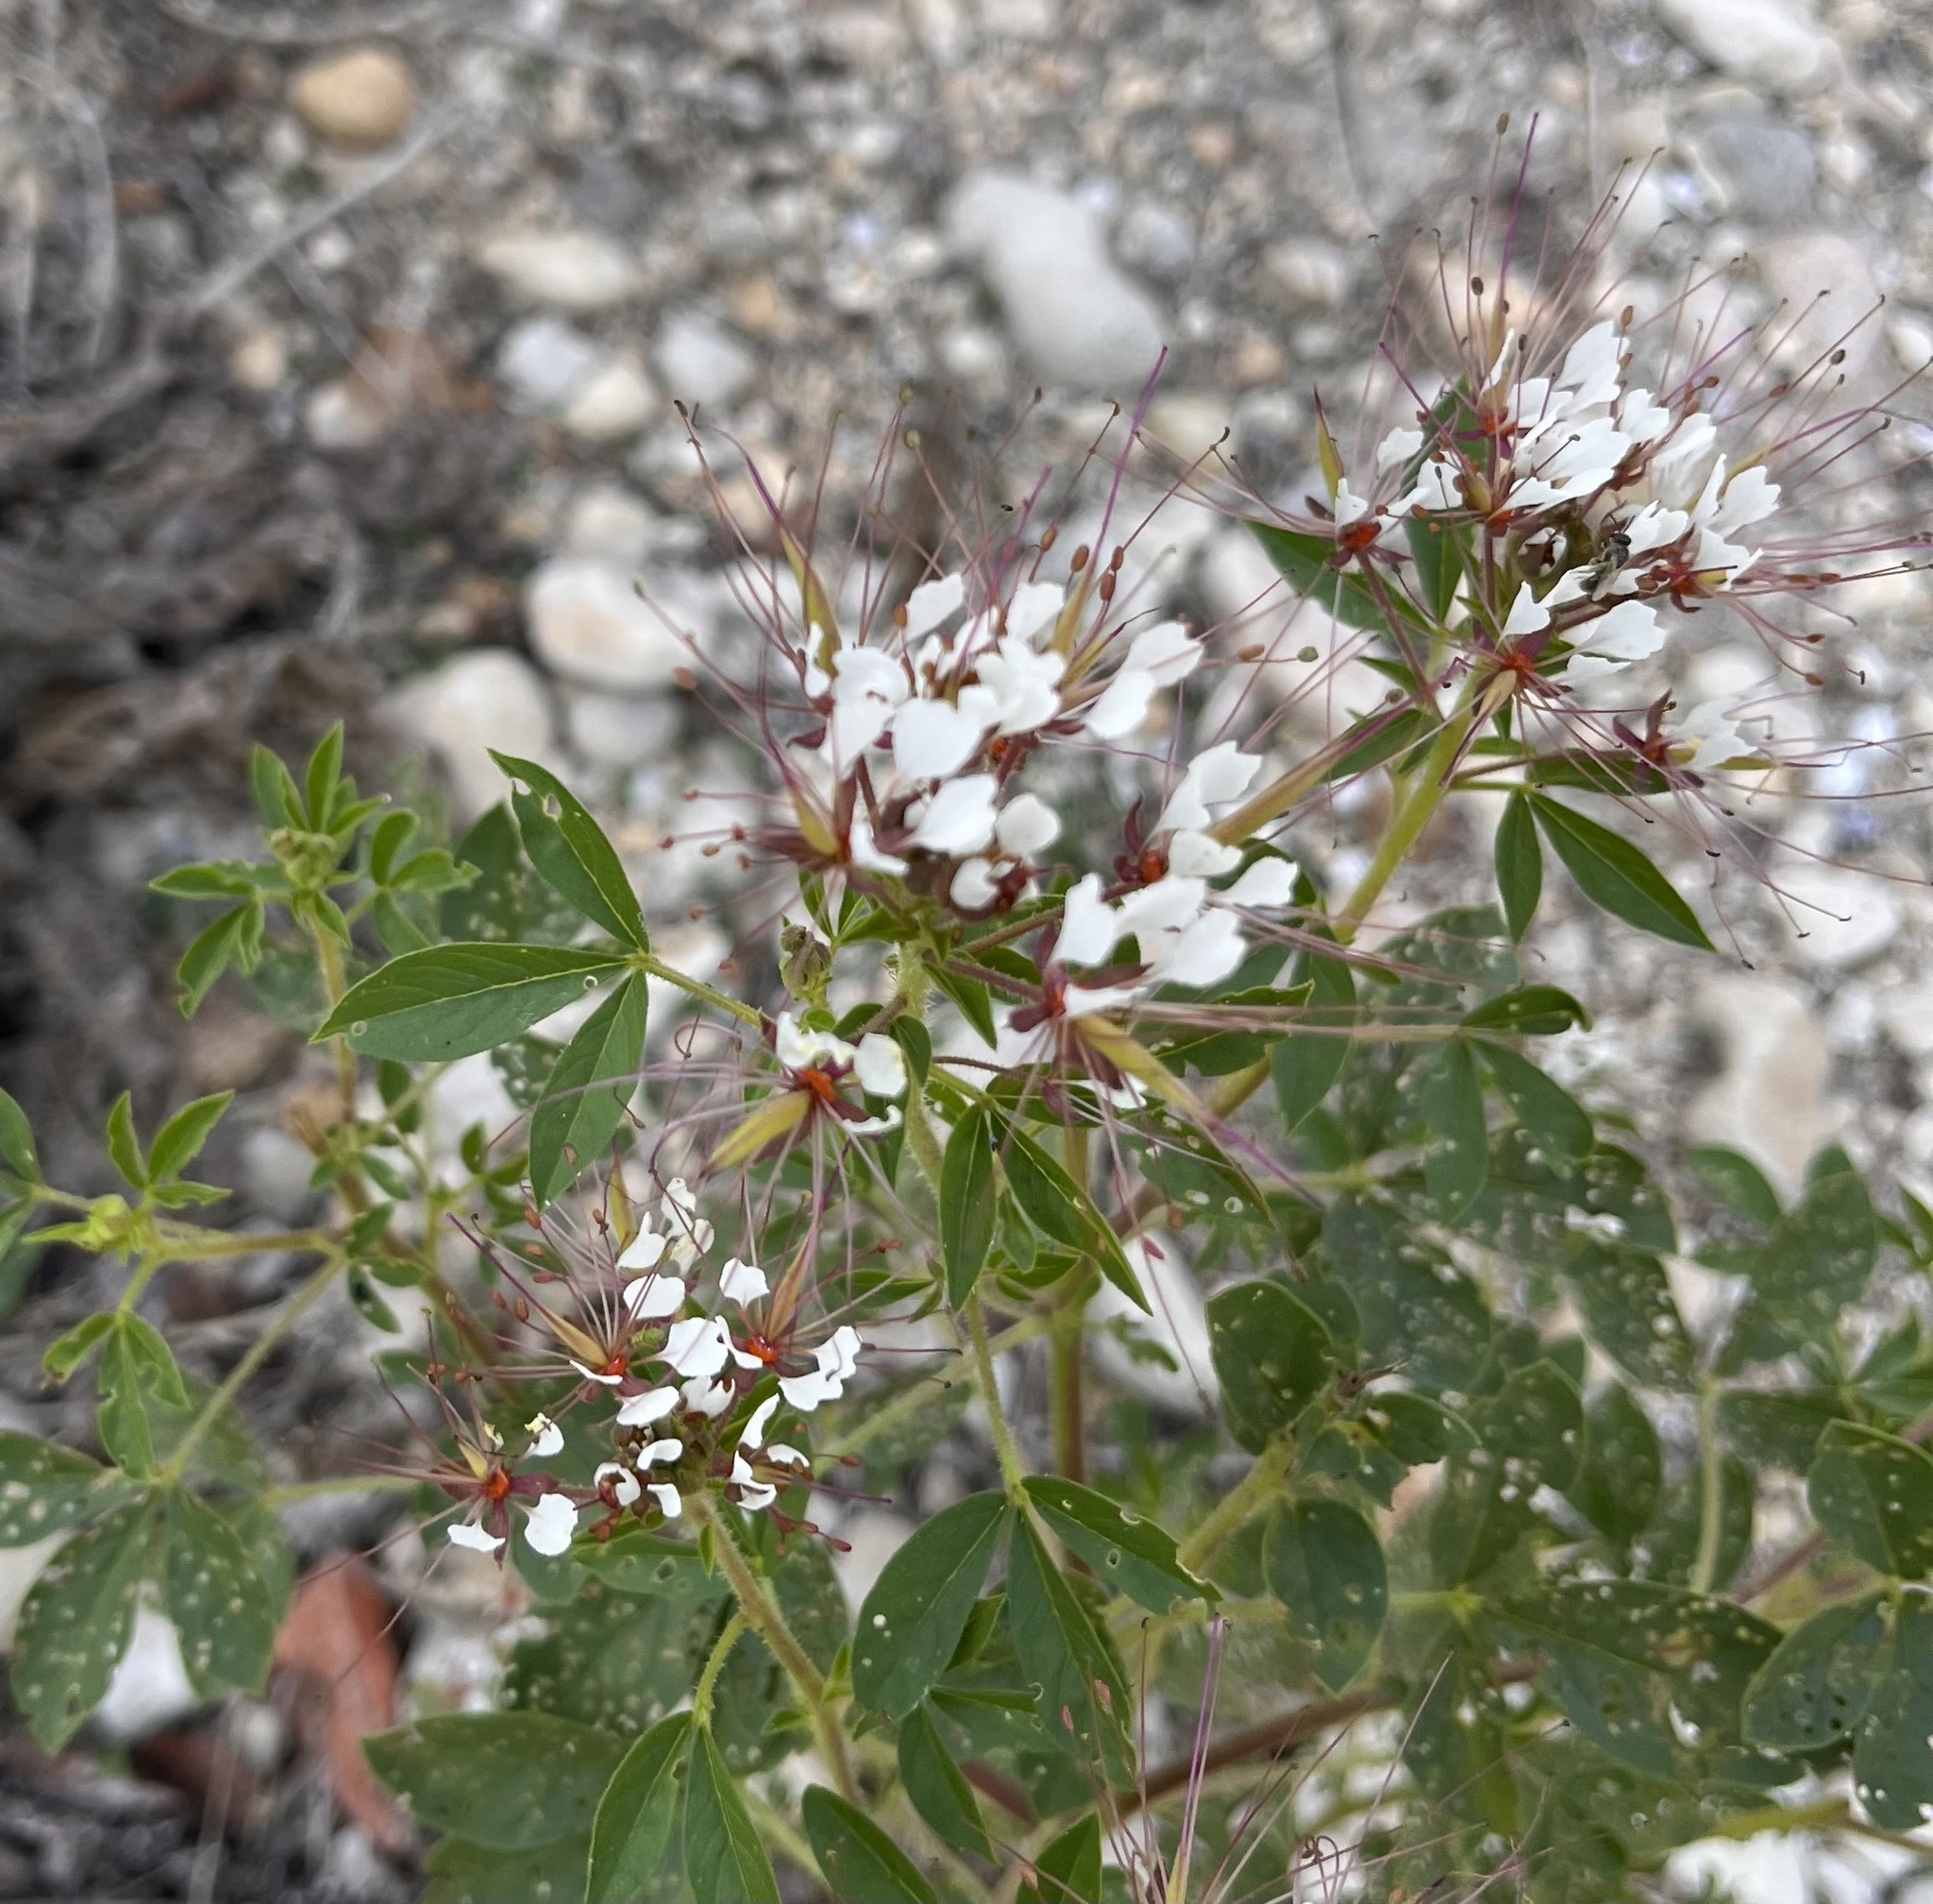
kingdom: Plantae
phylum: Tracheophyta
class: Magnoliopsida
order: Brassicales
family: Cleomaceae
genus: Polanisia
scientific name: Polanisia dodecandra
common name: Clammyweed
